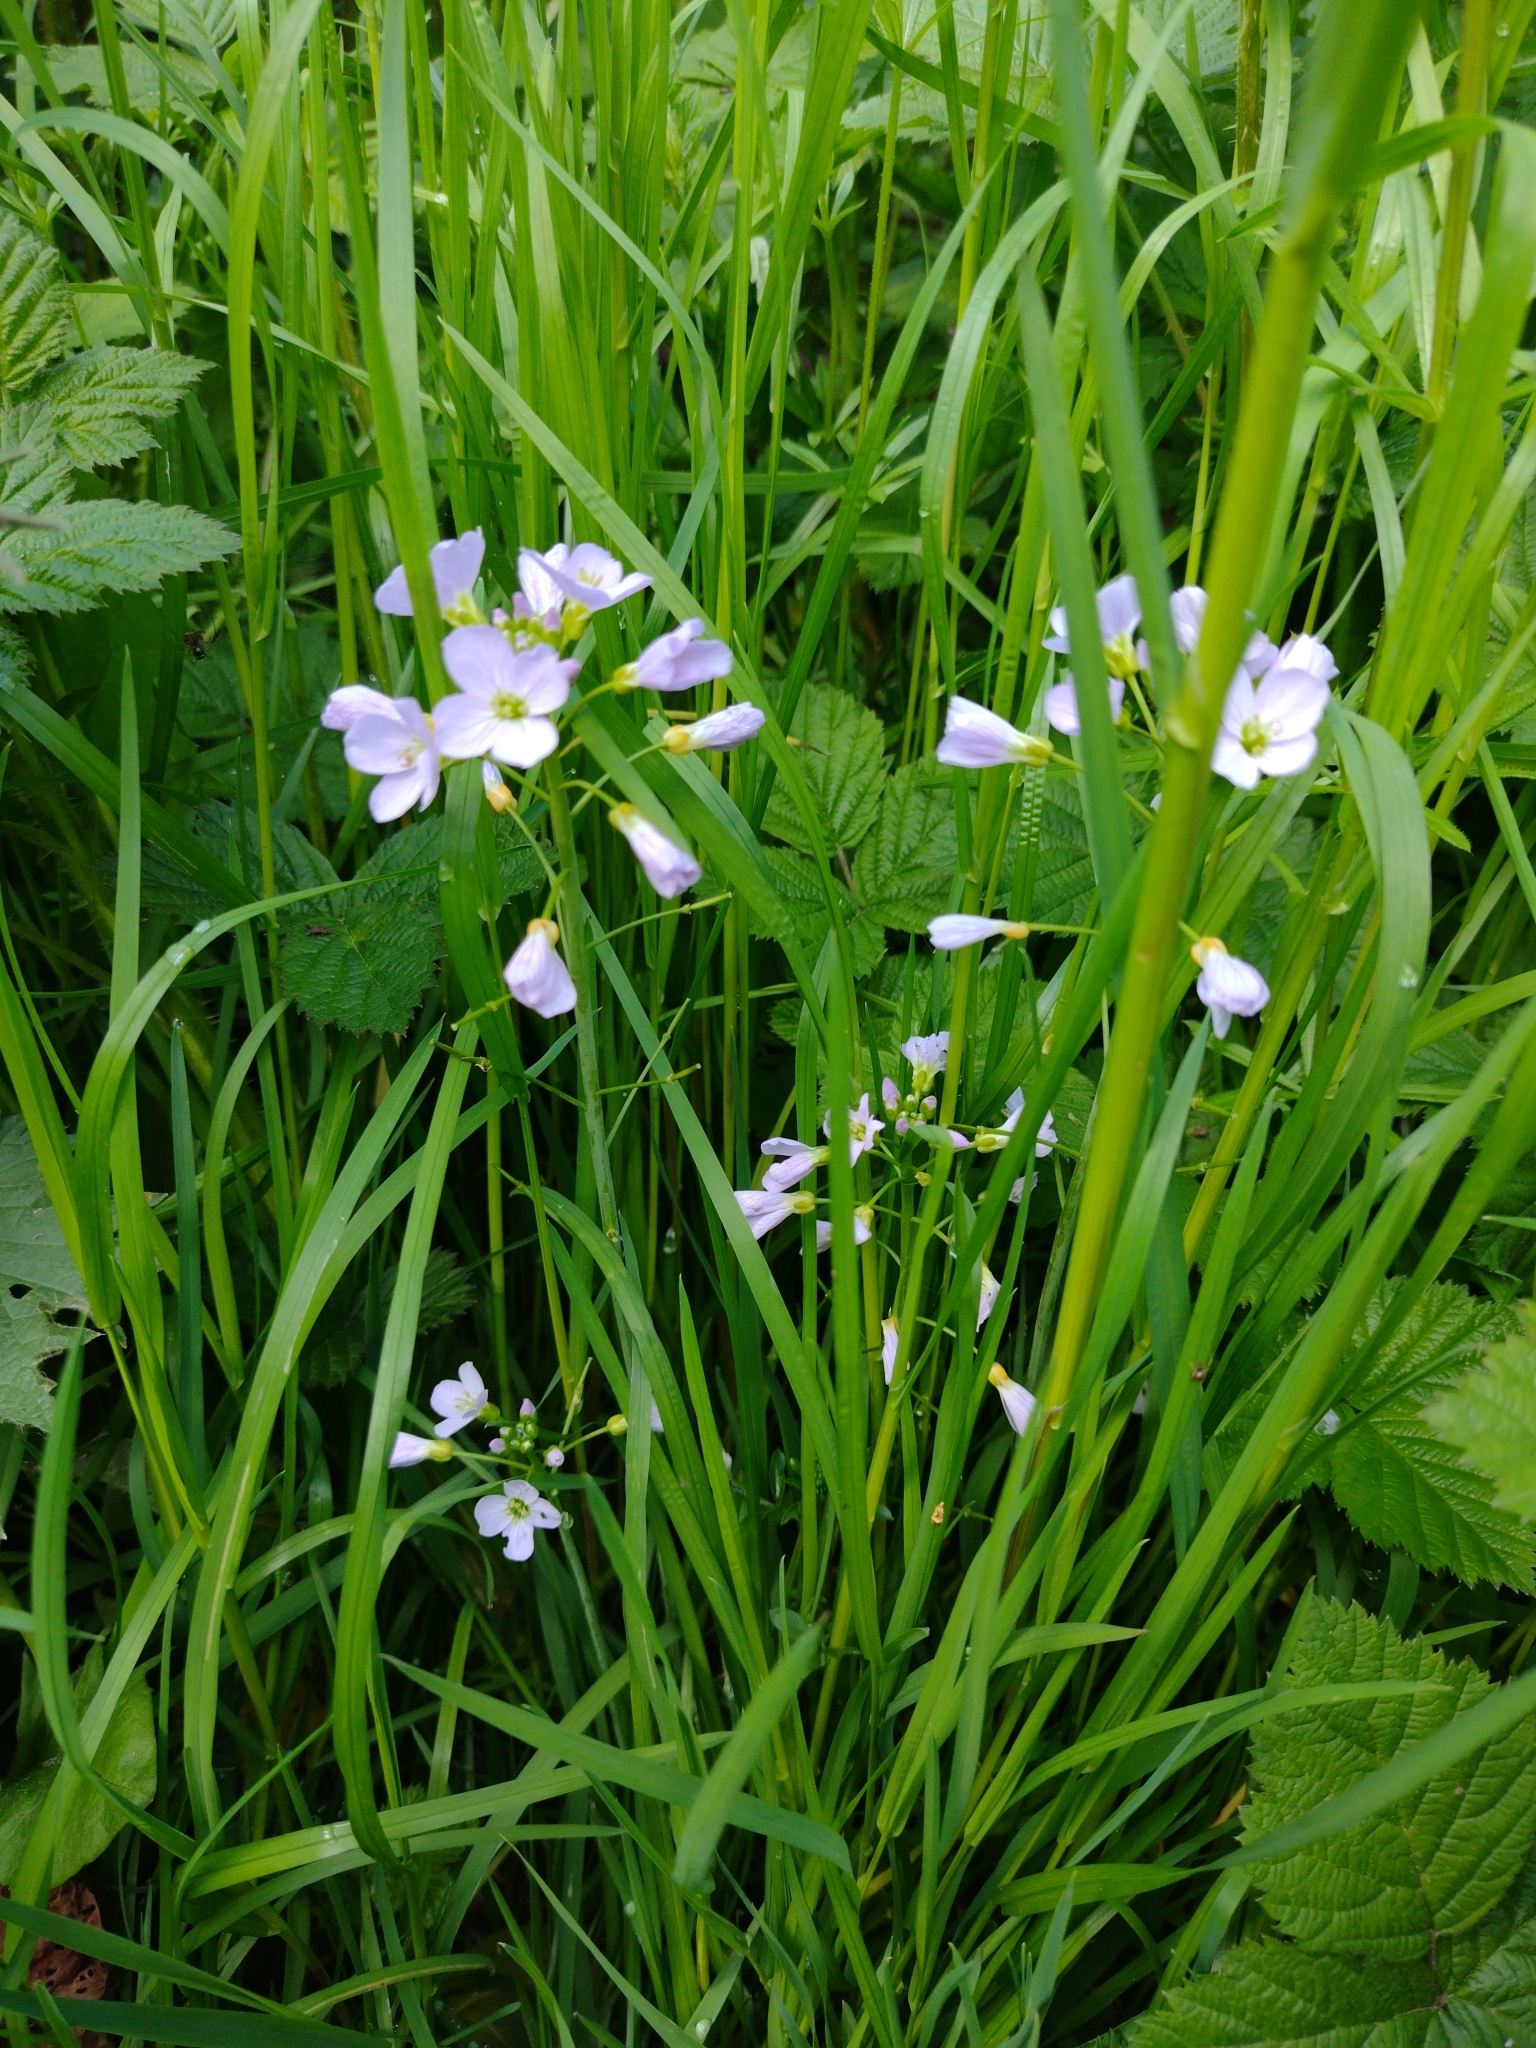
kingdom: Plantae
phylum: Tracheophyta
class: Magnoliopsida
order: Brassicales
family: Brassicaceae
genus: Cardamine
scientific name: Cardamine pratensis
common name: Cuckoo flower
